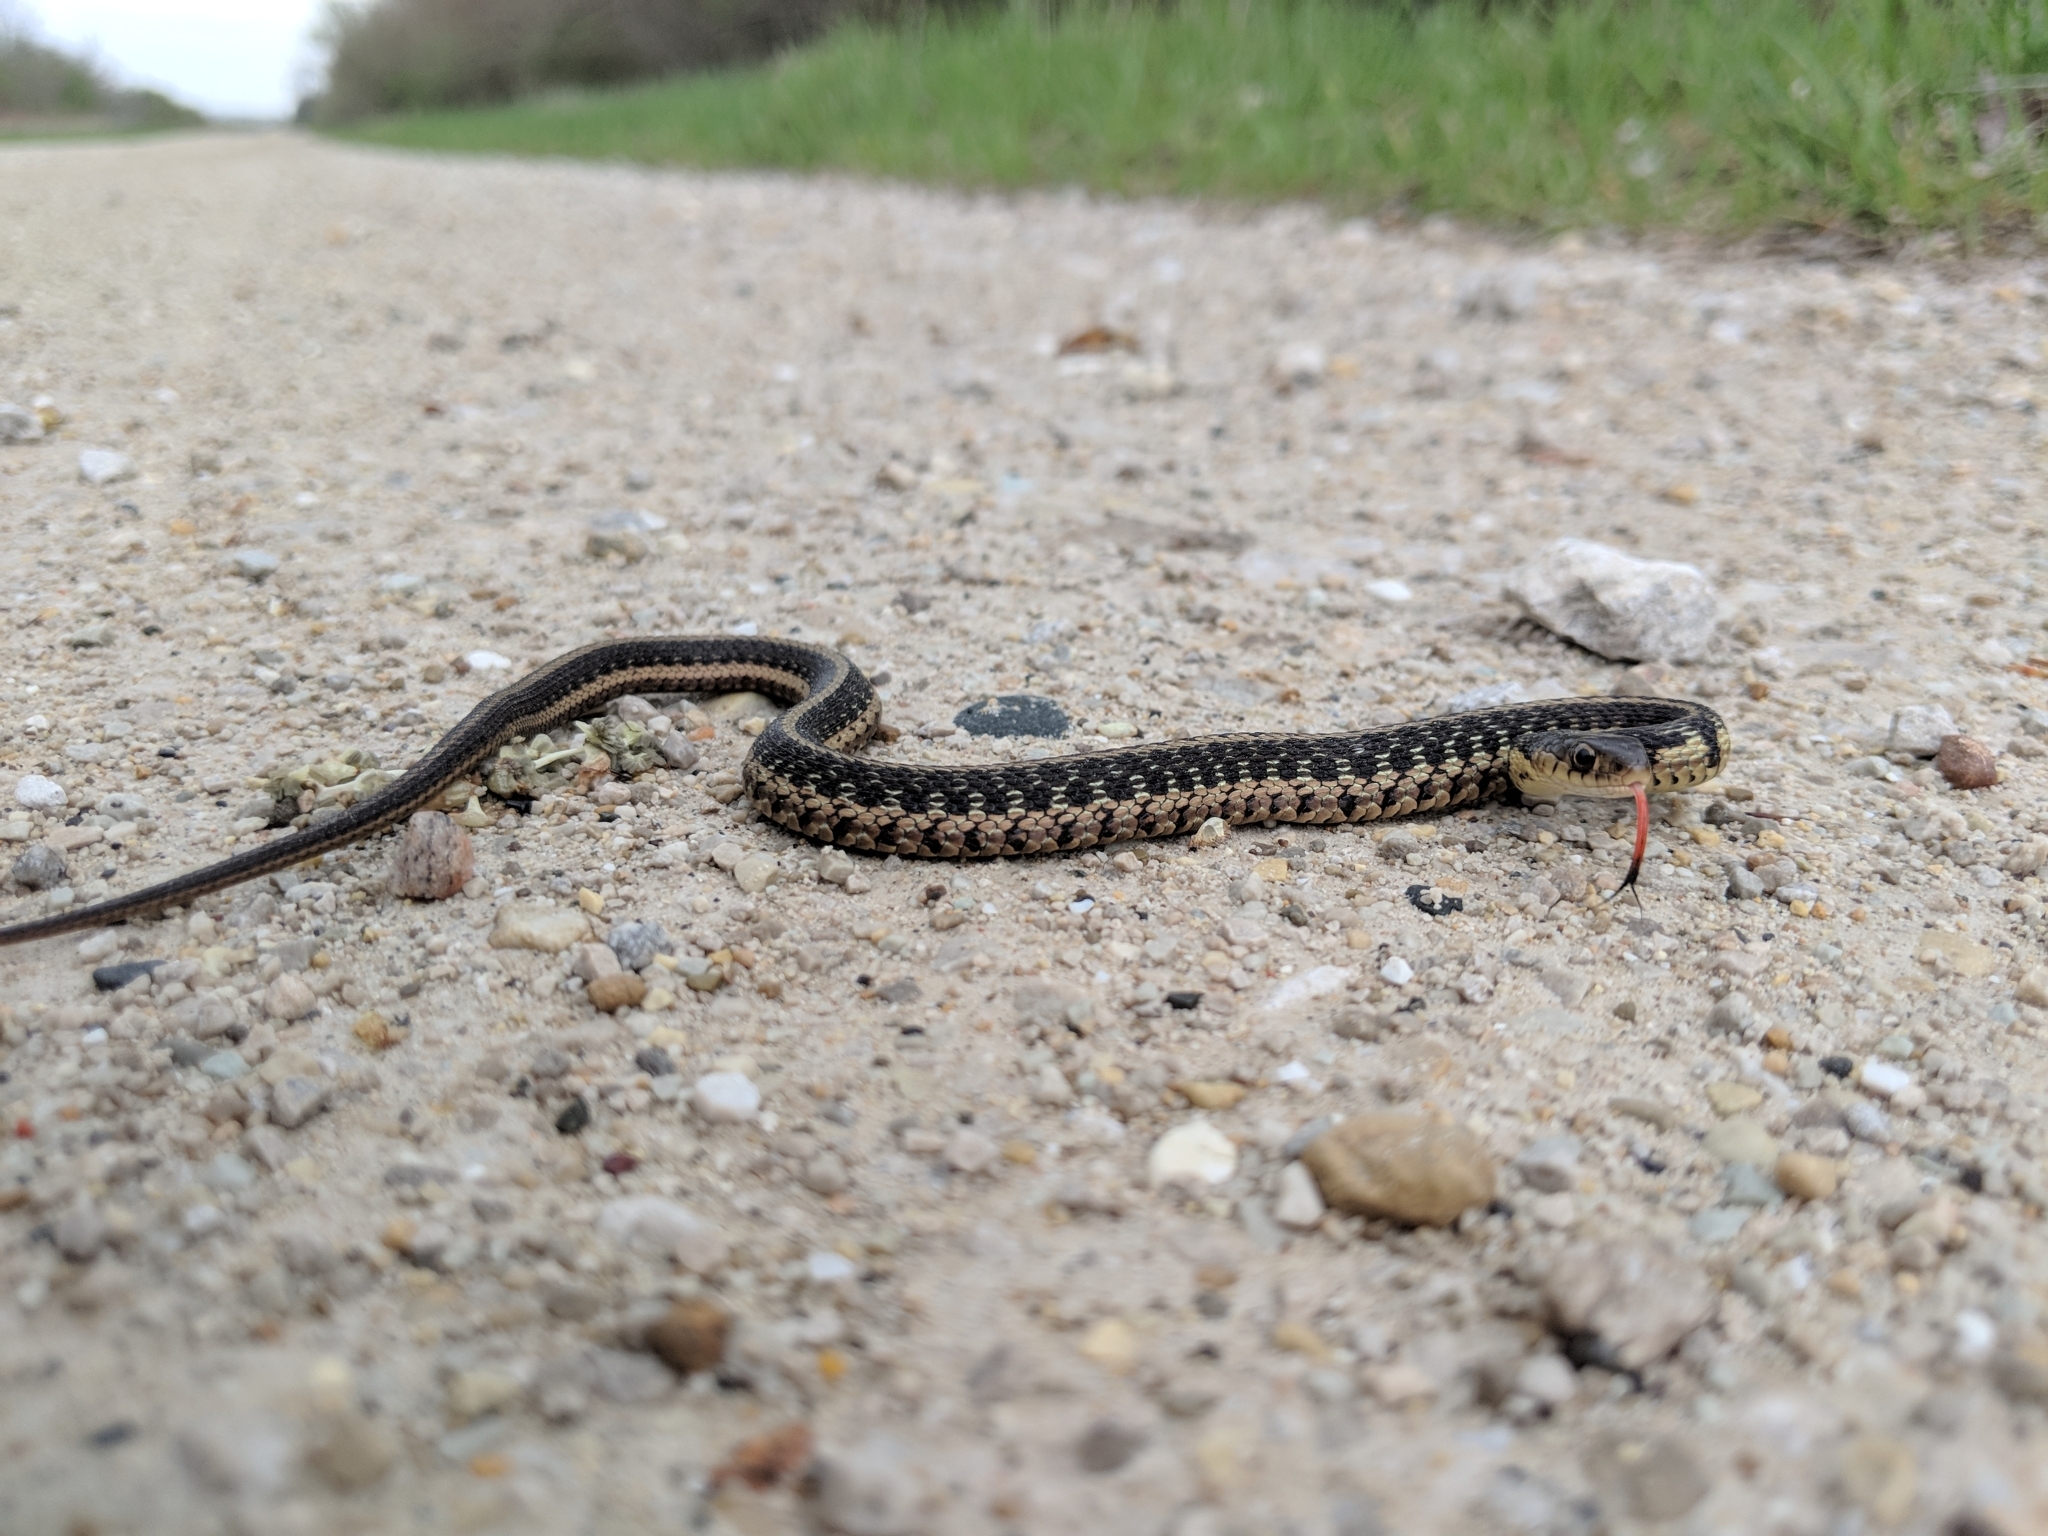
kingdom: Animalia
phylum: Chordata
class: Squamata
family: Colubridae
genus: Thamnophis
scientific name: Thamnophis sirtalis
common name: Common garter snake
